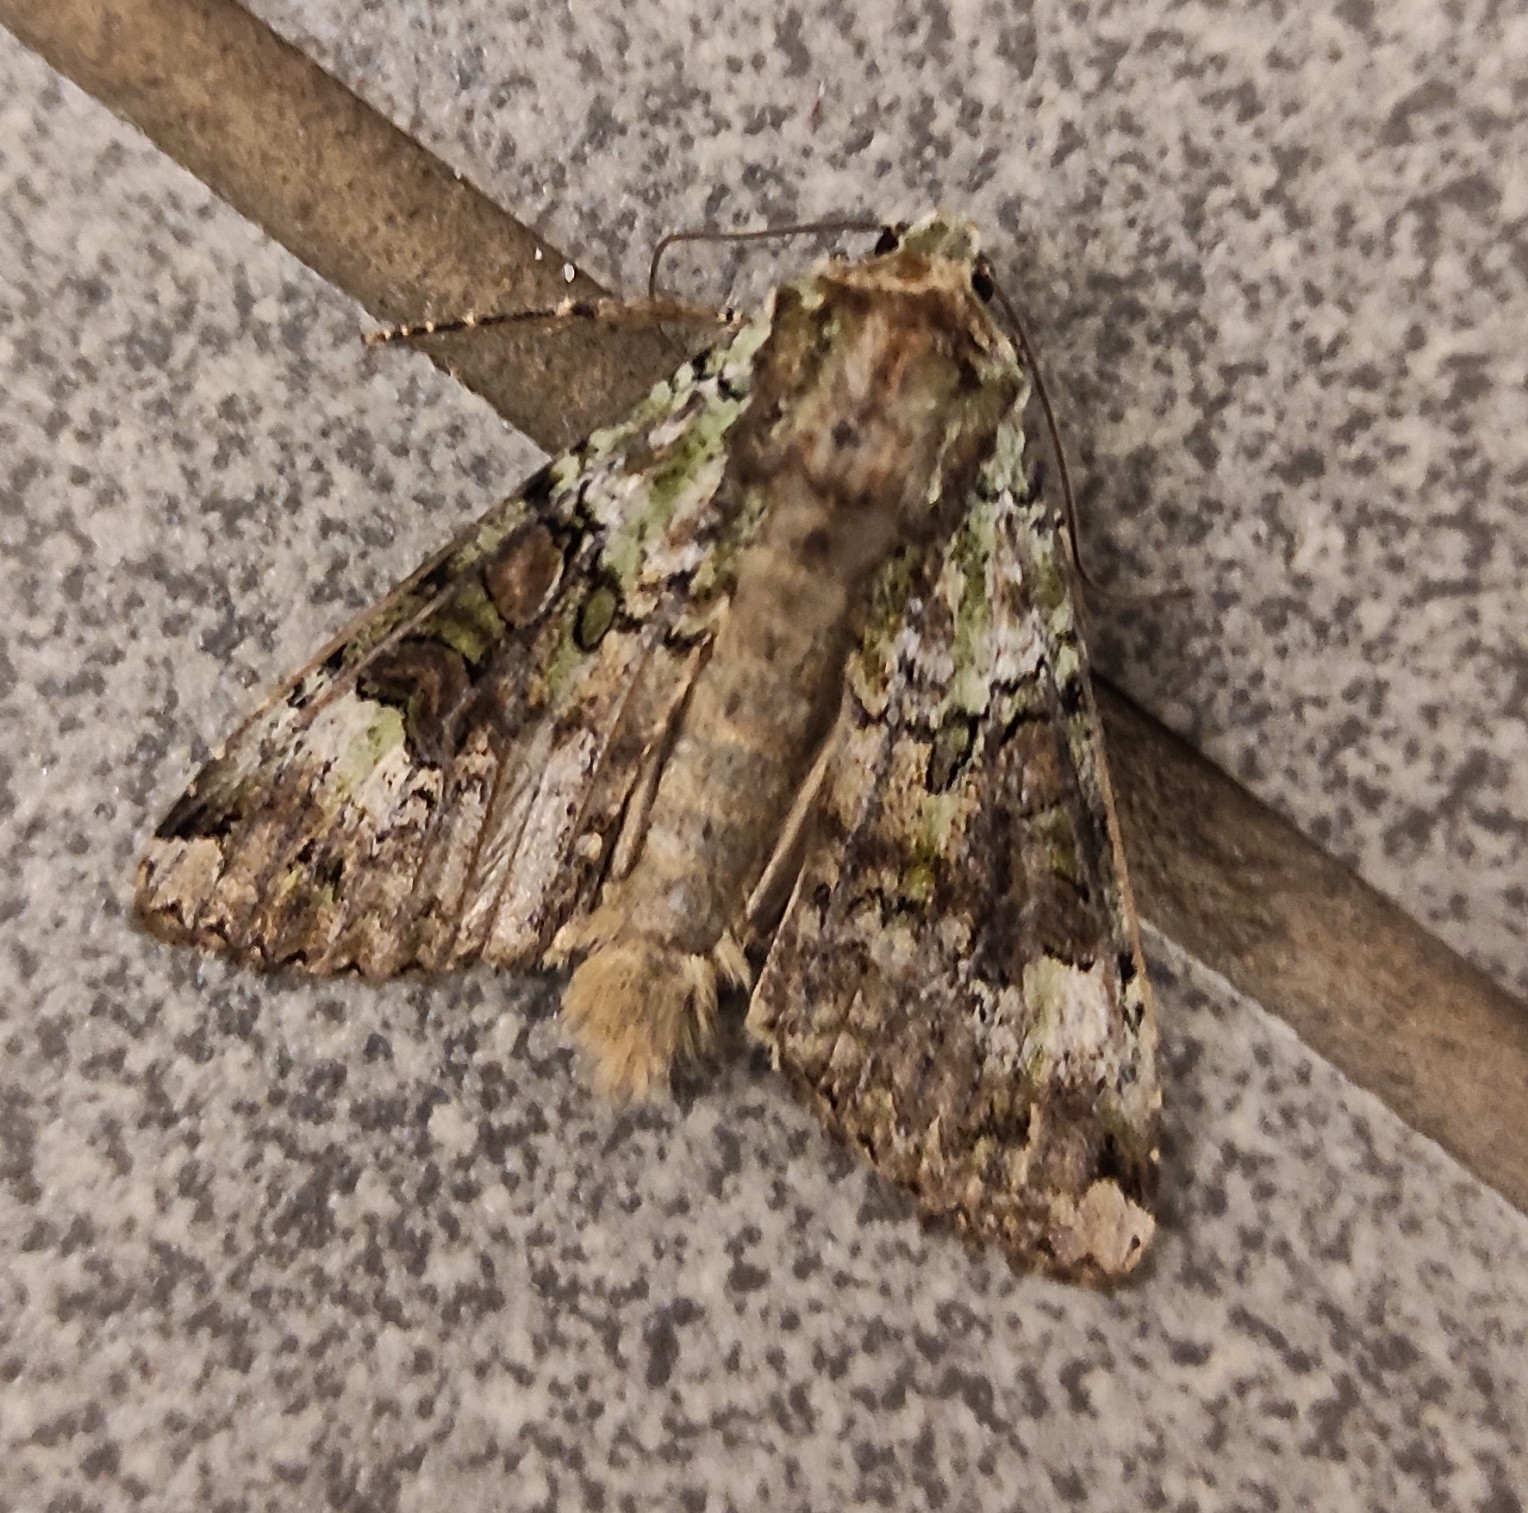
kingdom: Animalia
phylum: Arthropoda
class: Insecta
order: Lepidoptera
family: Noctuidae
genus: Anaplectoides
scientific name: Anaplectoides prasina
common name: Green arches
